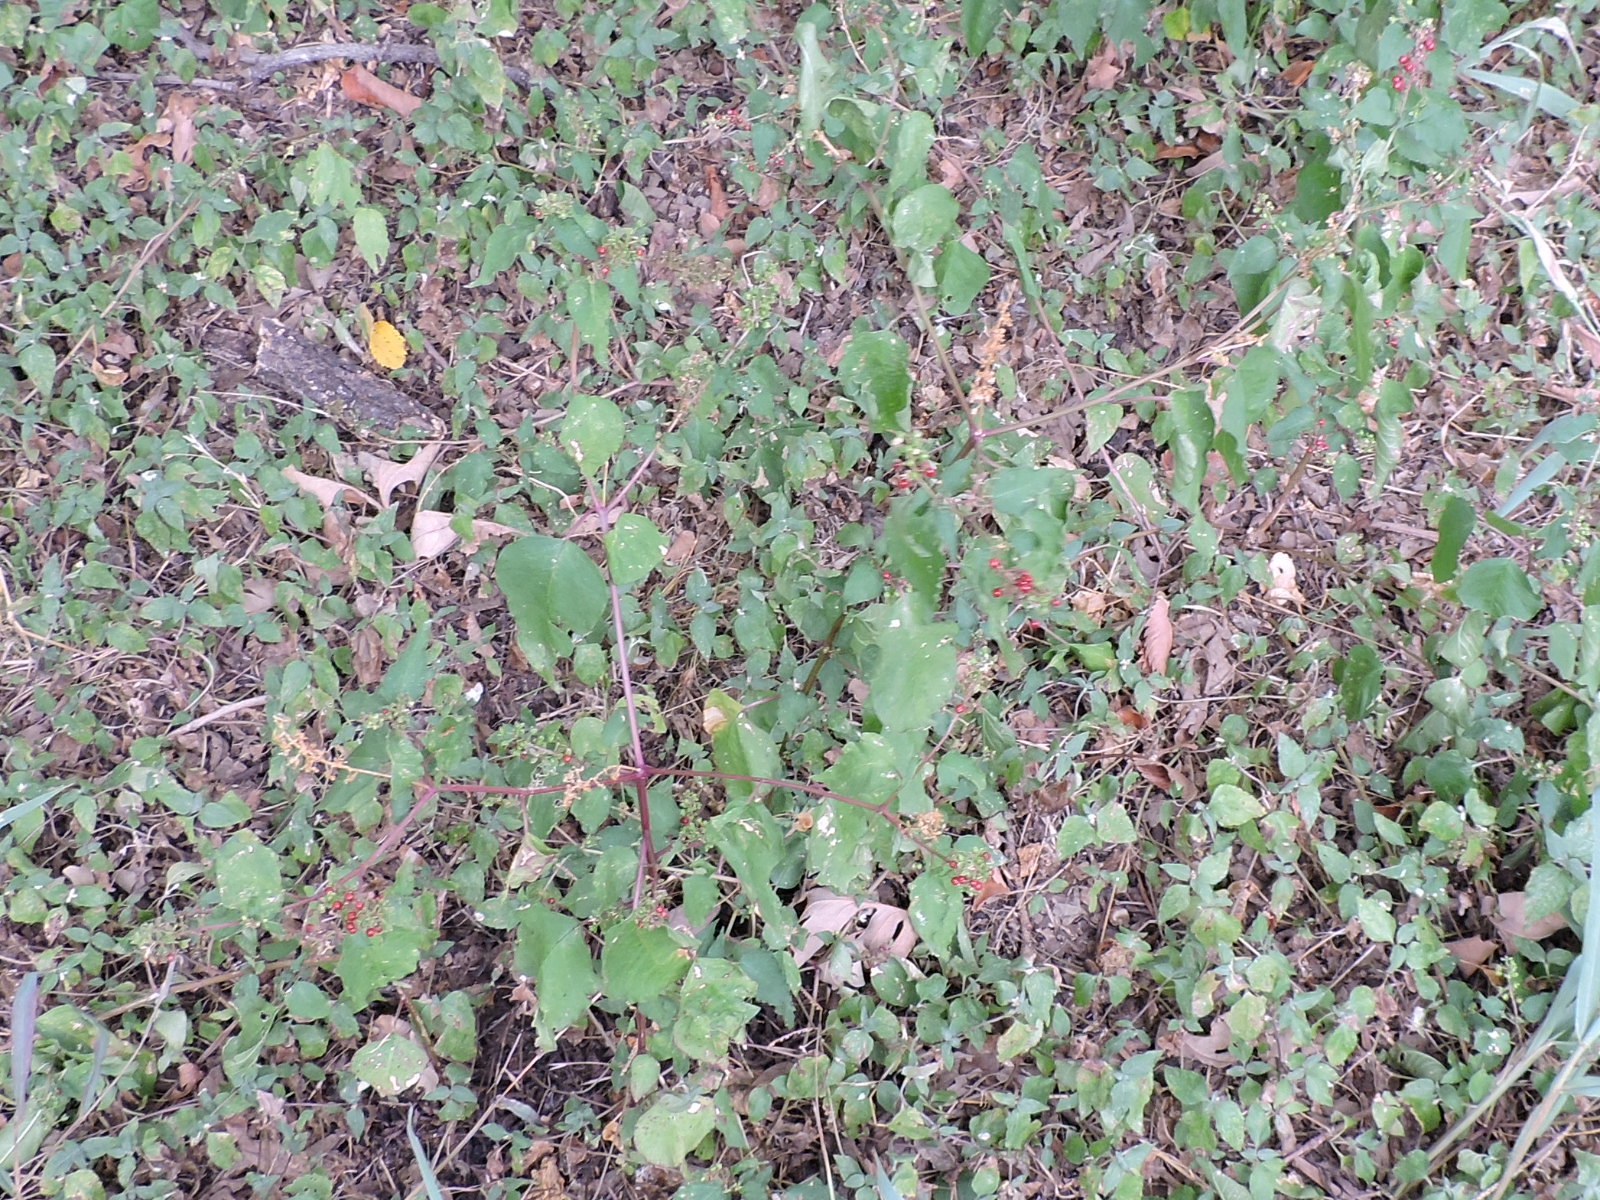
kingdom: Plantae
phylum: Tracheophyta
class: Magnoliopsida
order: Caryophyllales
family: Phytolaccaceae
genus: Rivina
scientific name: Rivina humilis
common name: Rougeplant
